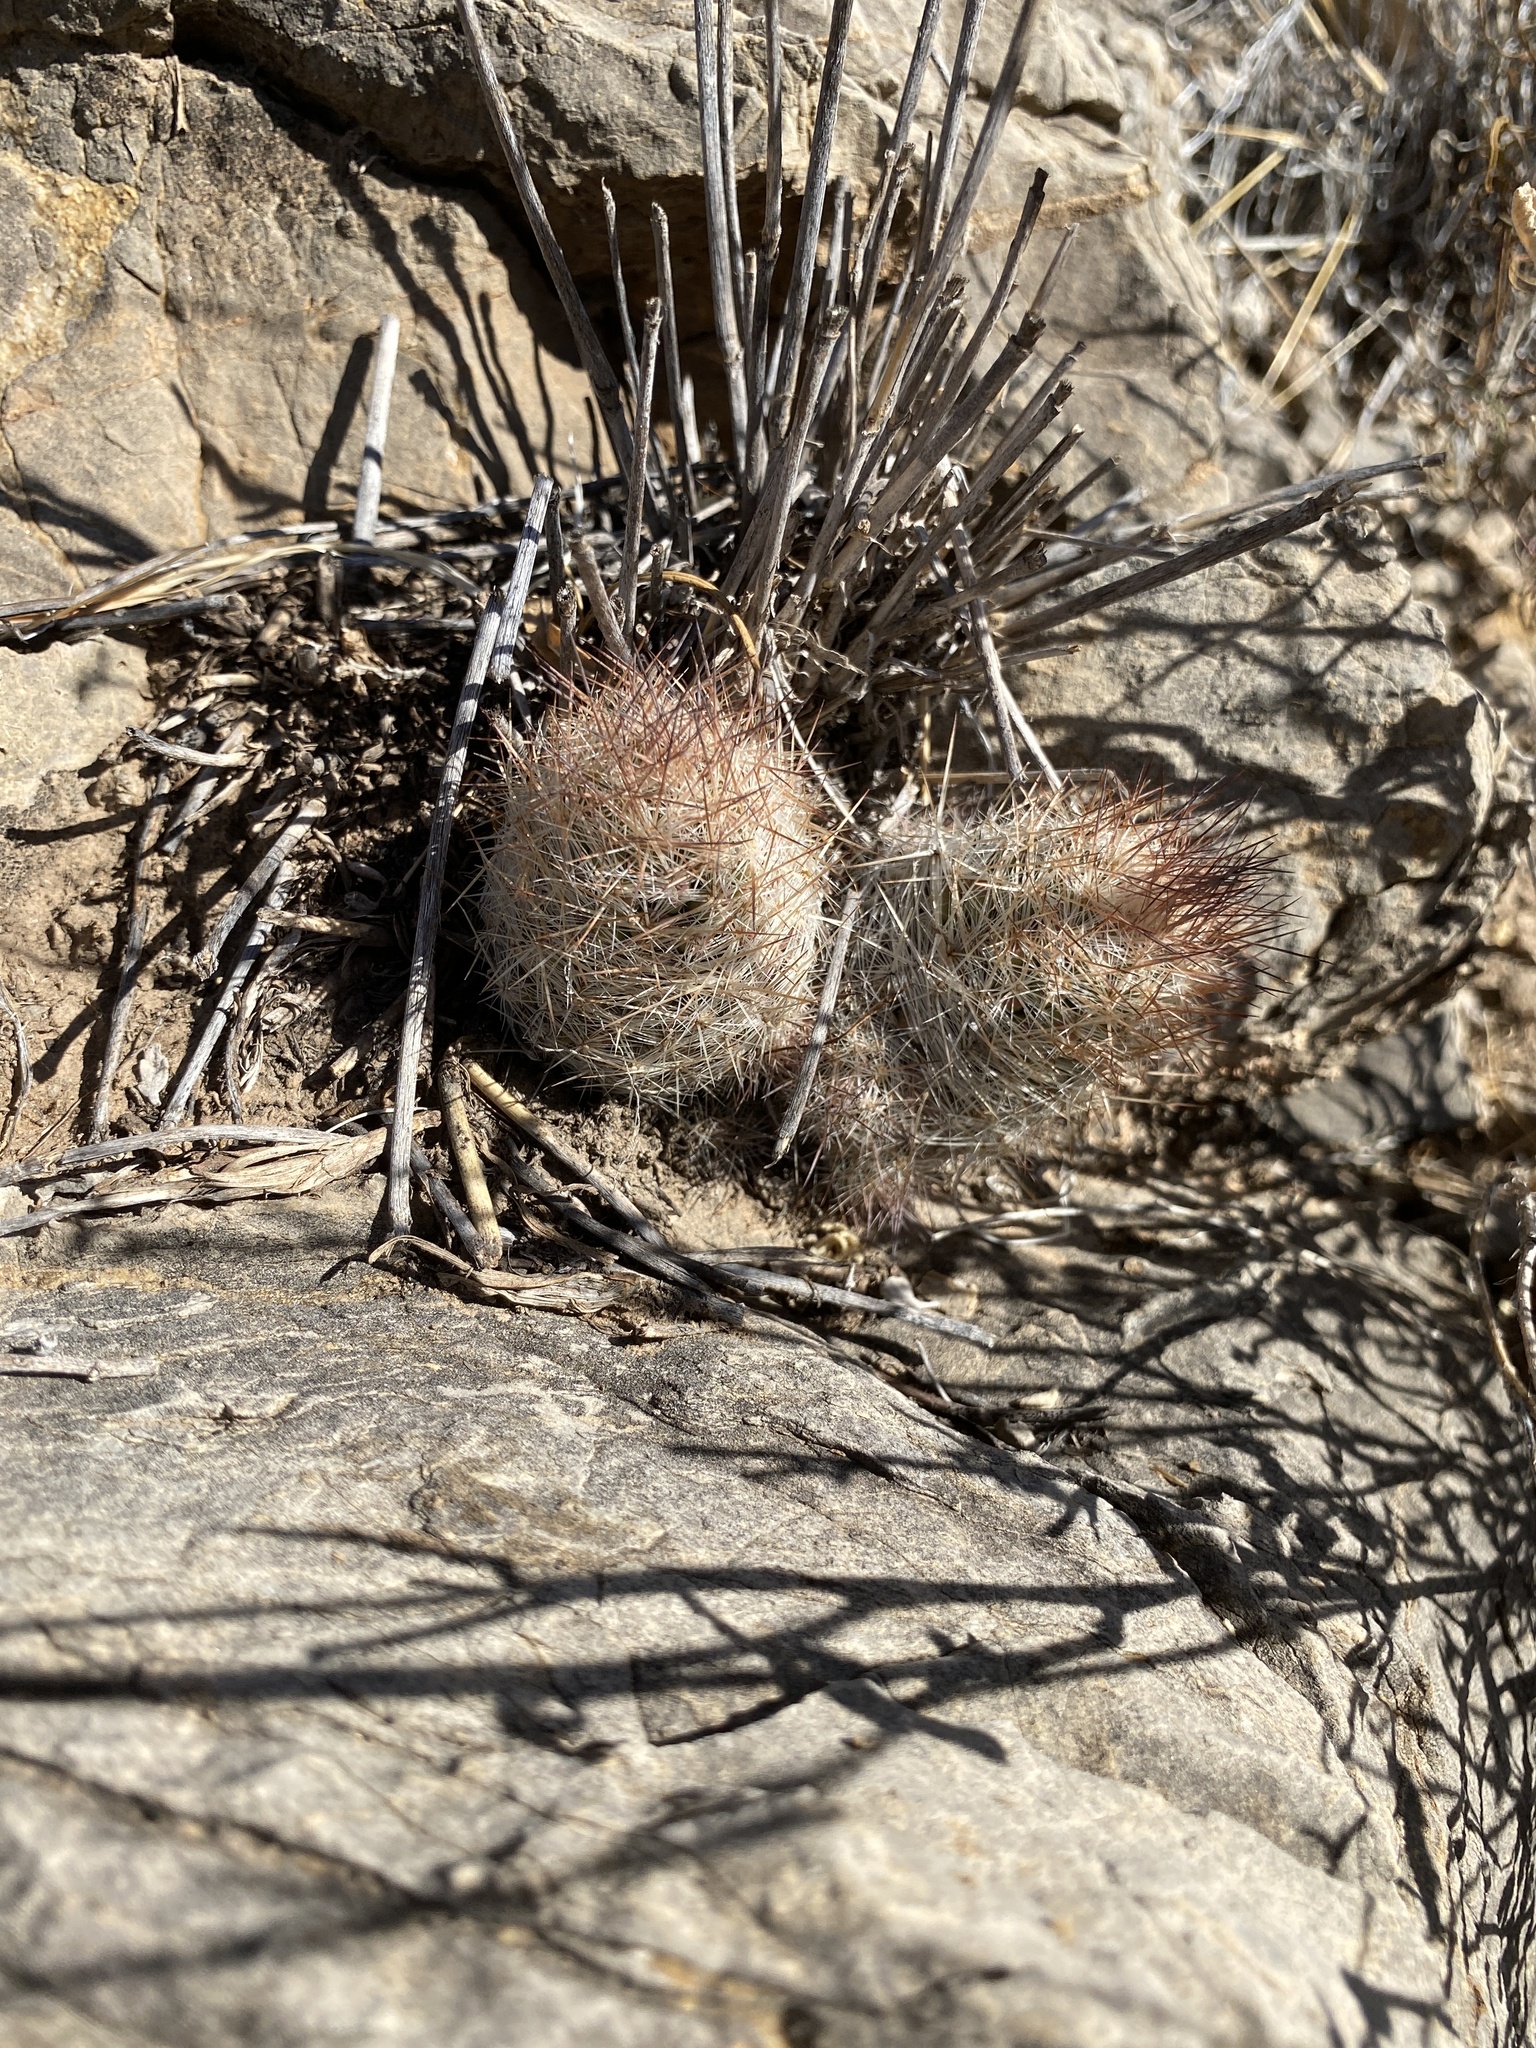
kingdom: Plantae
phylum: Tracheophyta
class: Magnoliopsida
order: Caryophyllales
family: Cactaceae
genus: Pelecyphora
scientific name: Pelecyphora tuberculosa
